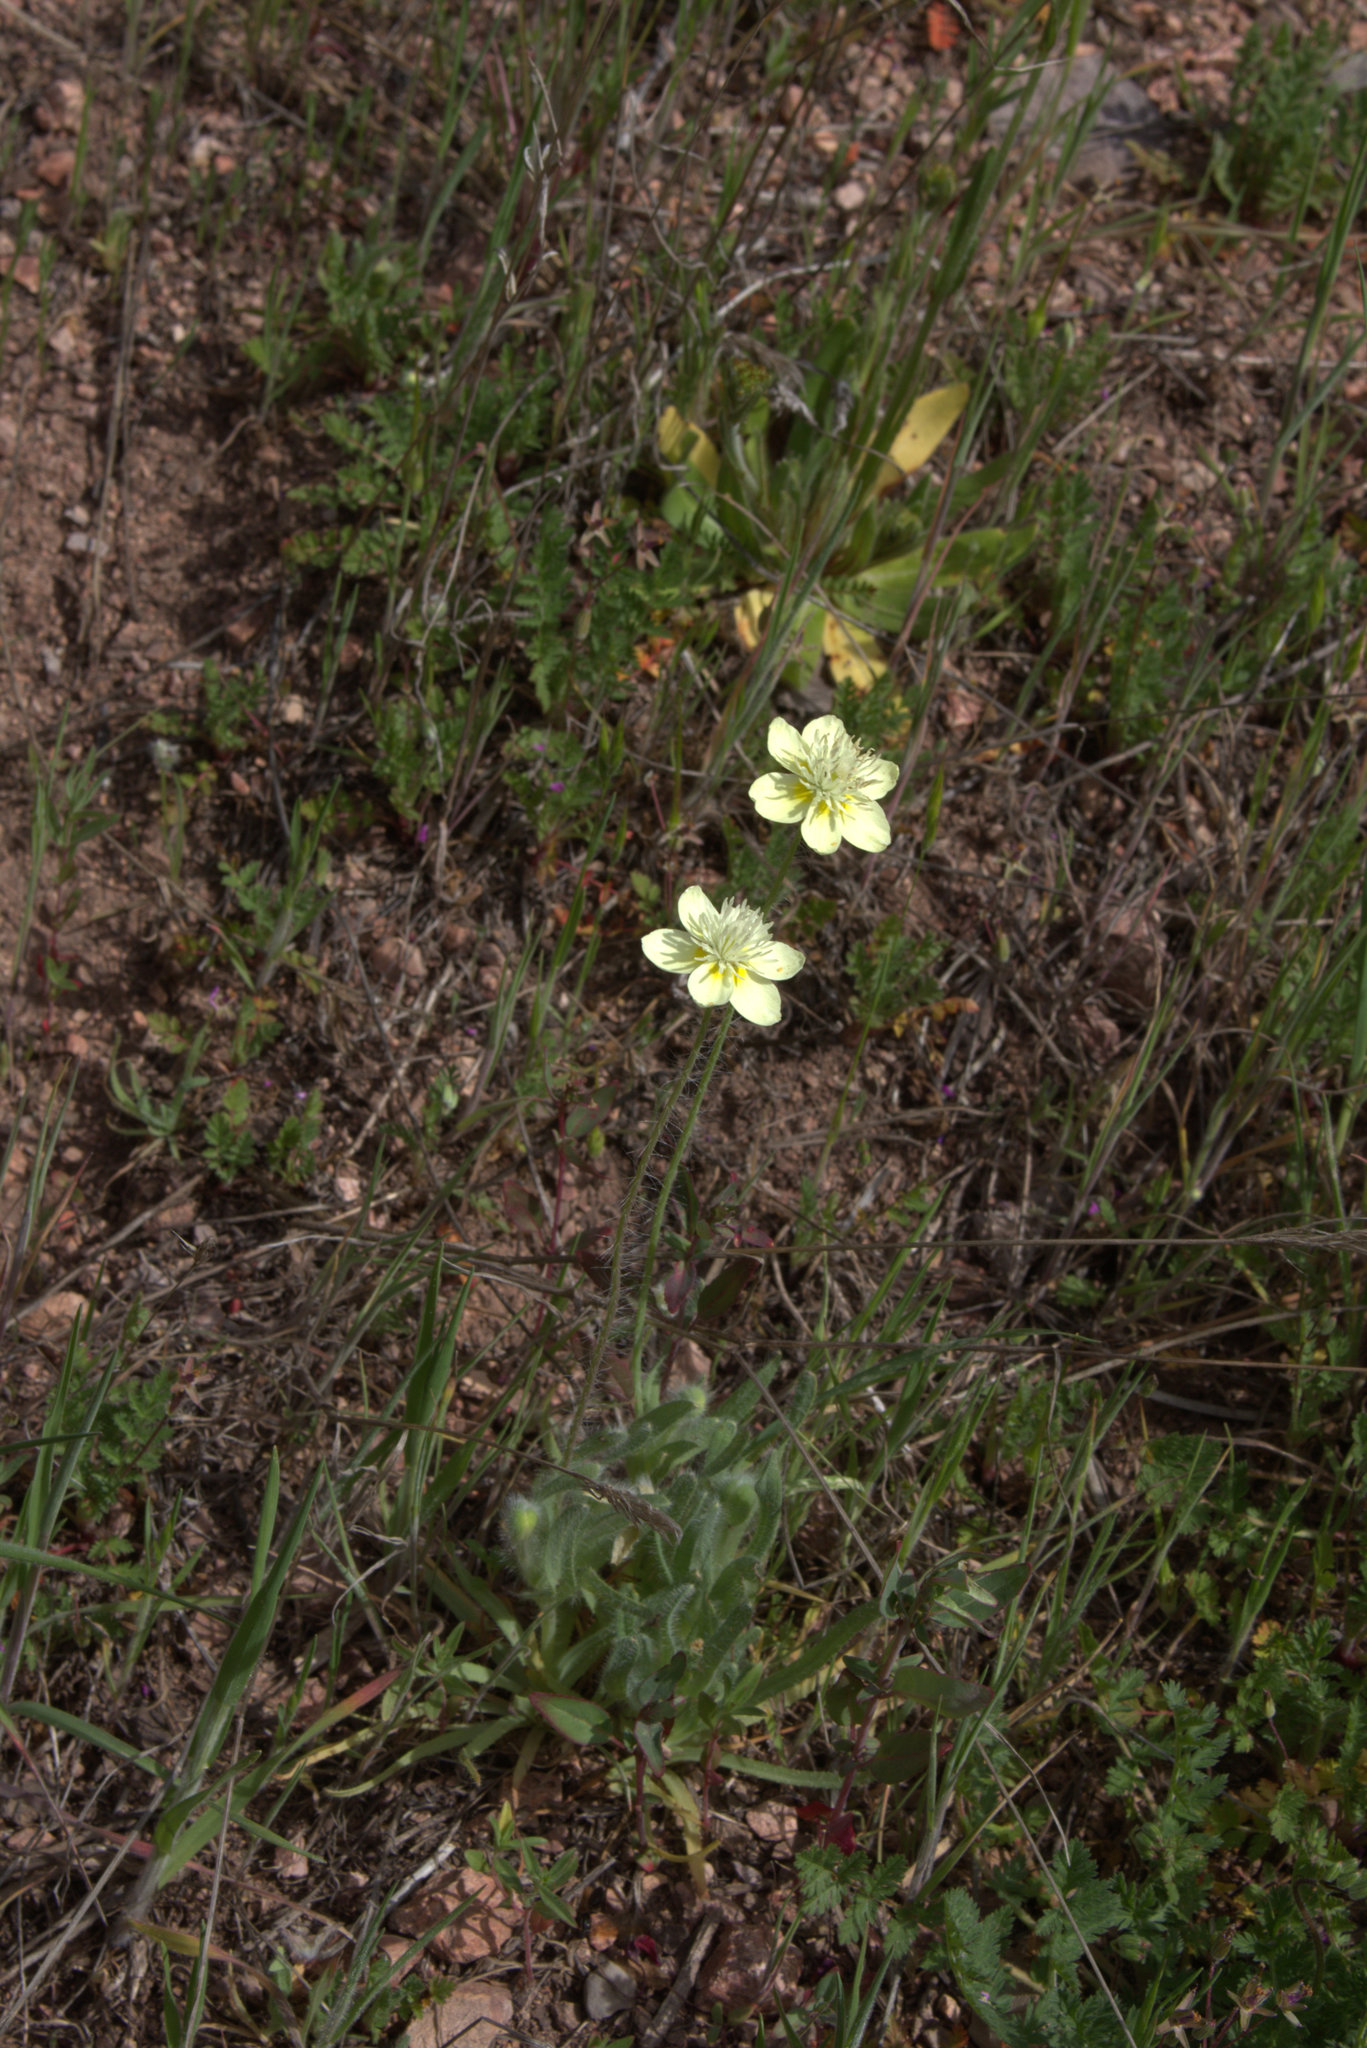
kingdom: Plantae
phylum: Tracheophyta
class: Magnoliopsida
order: Ranunculales
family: Papaveraceae
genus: Platystemon
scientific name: Platystemon californicus
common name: Cream-cups
